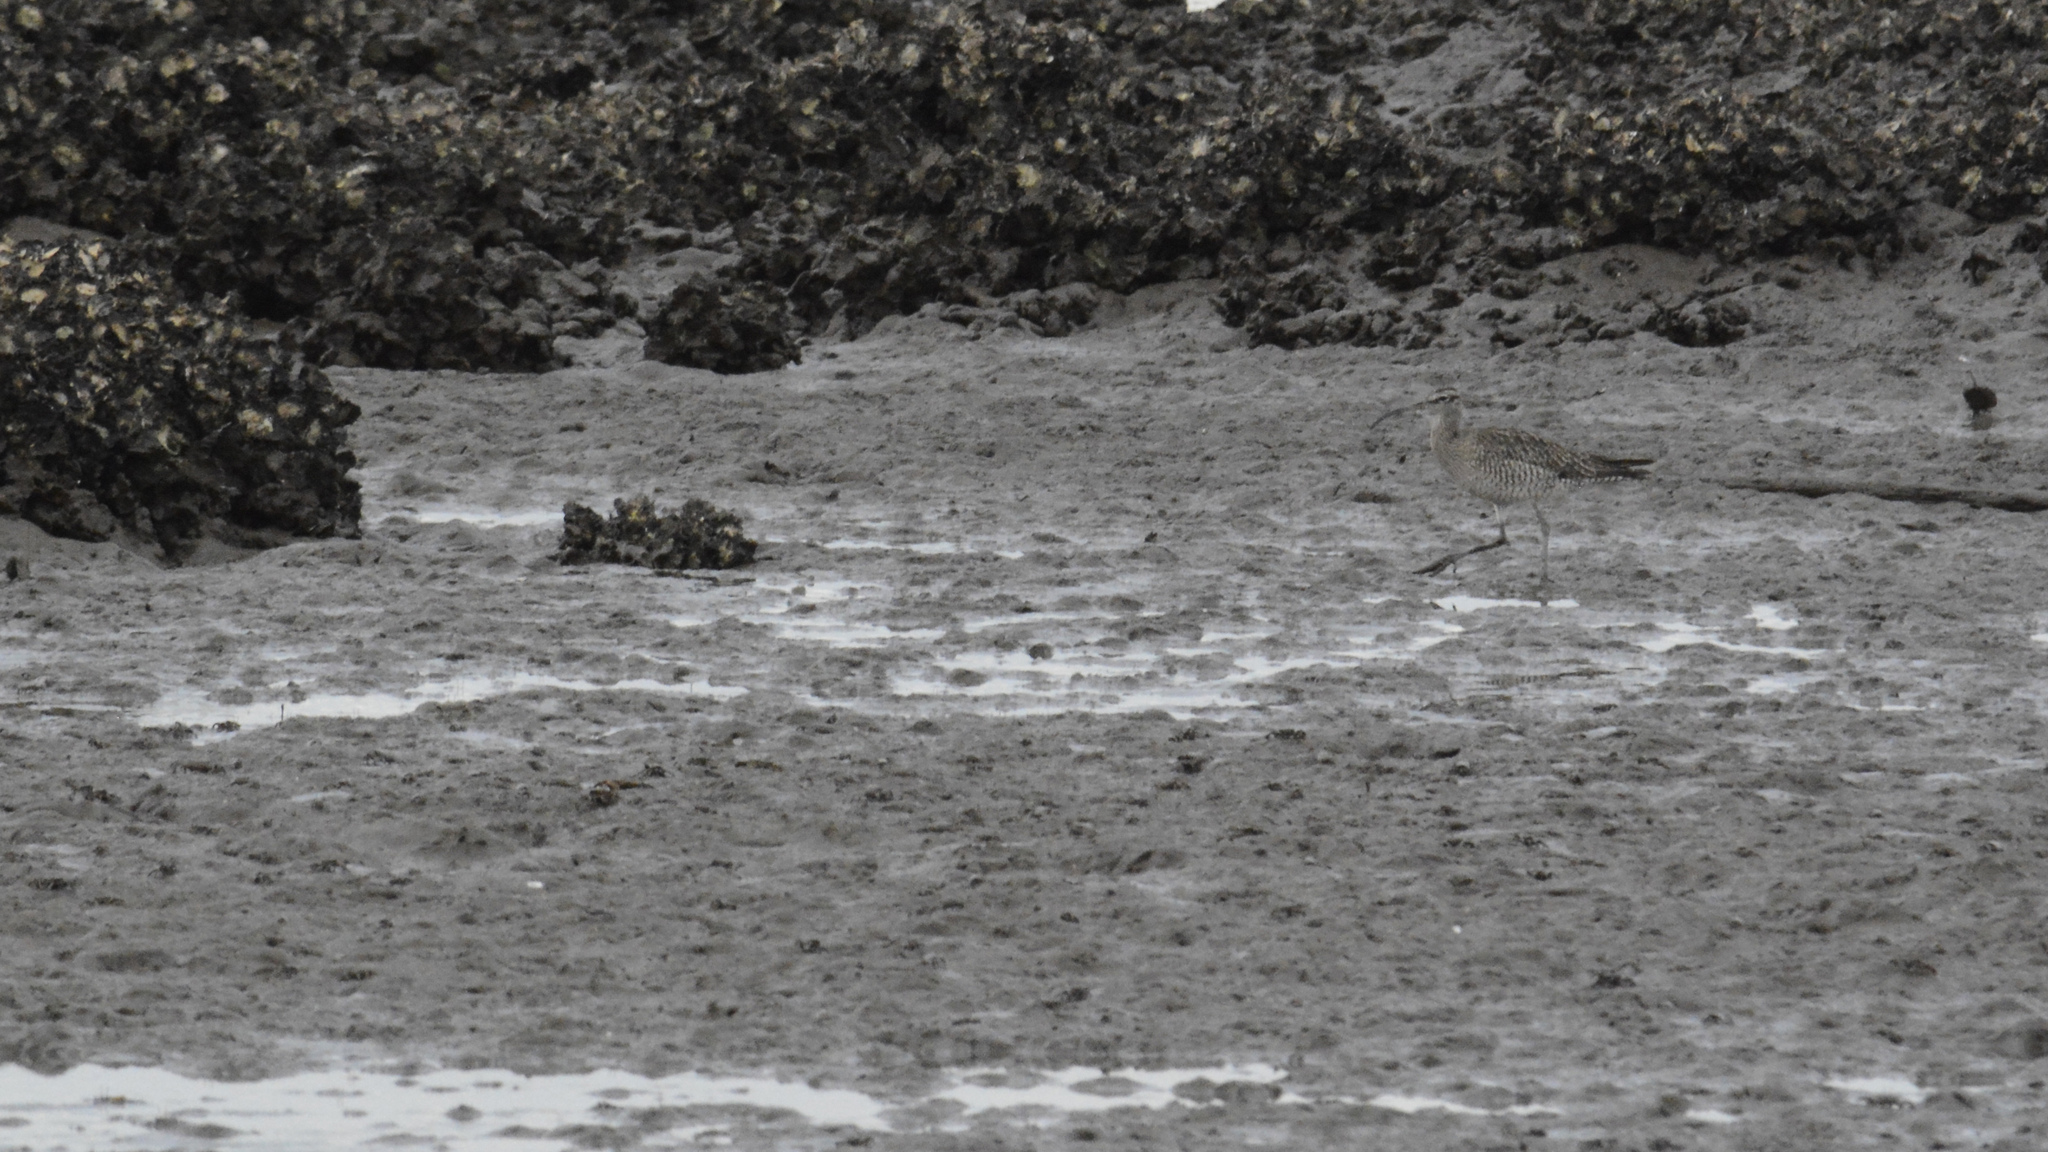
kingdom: Animalia
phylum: Chordata
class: Aves
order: Charadriiformes
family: Scolopacidae
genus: Numenius
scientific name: Numenius phaeopus
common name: Whimbrel
